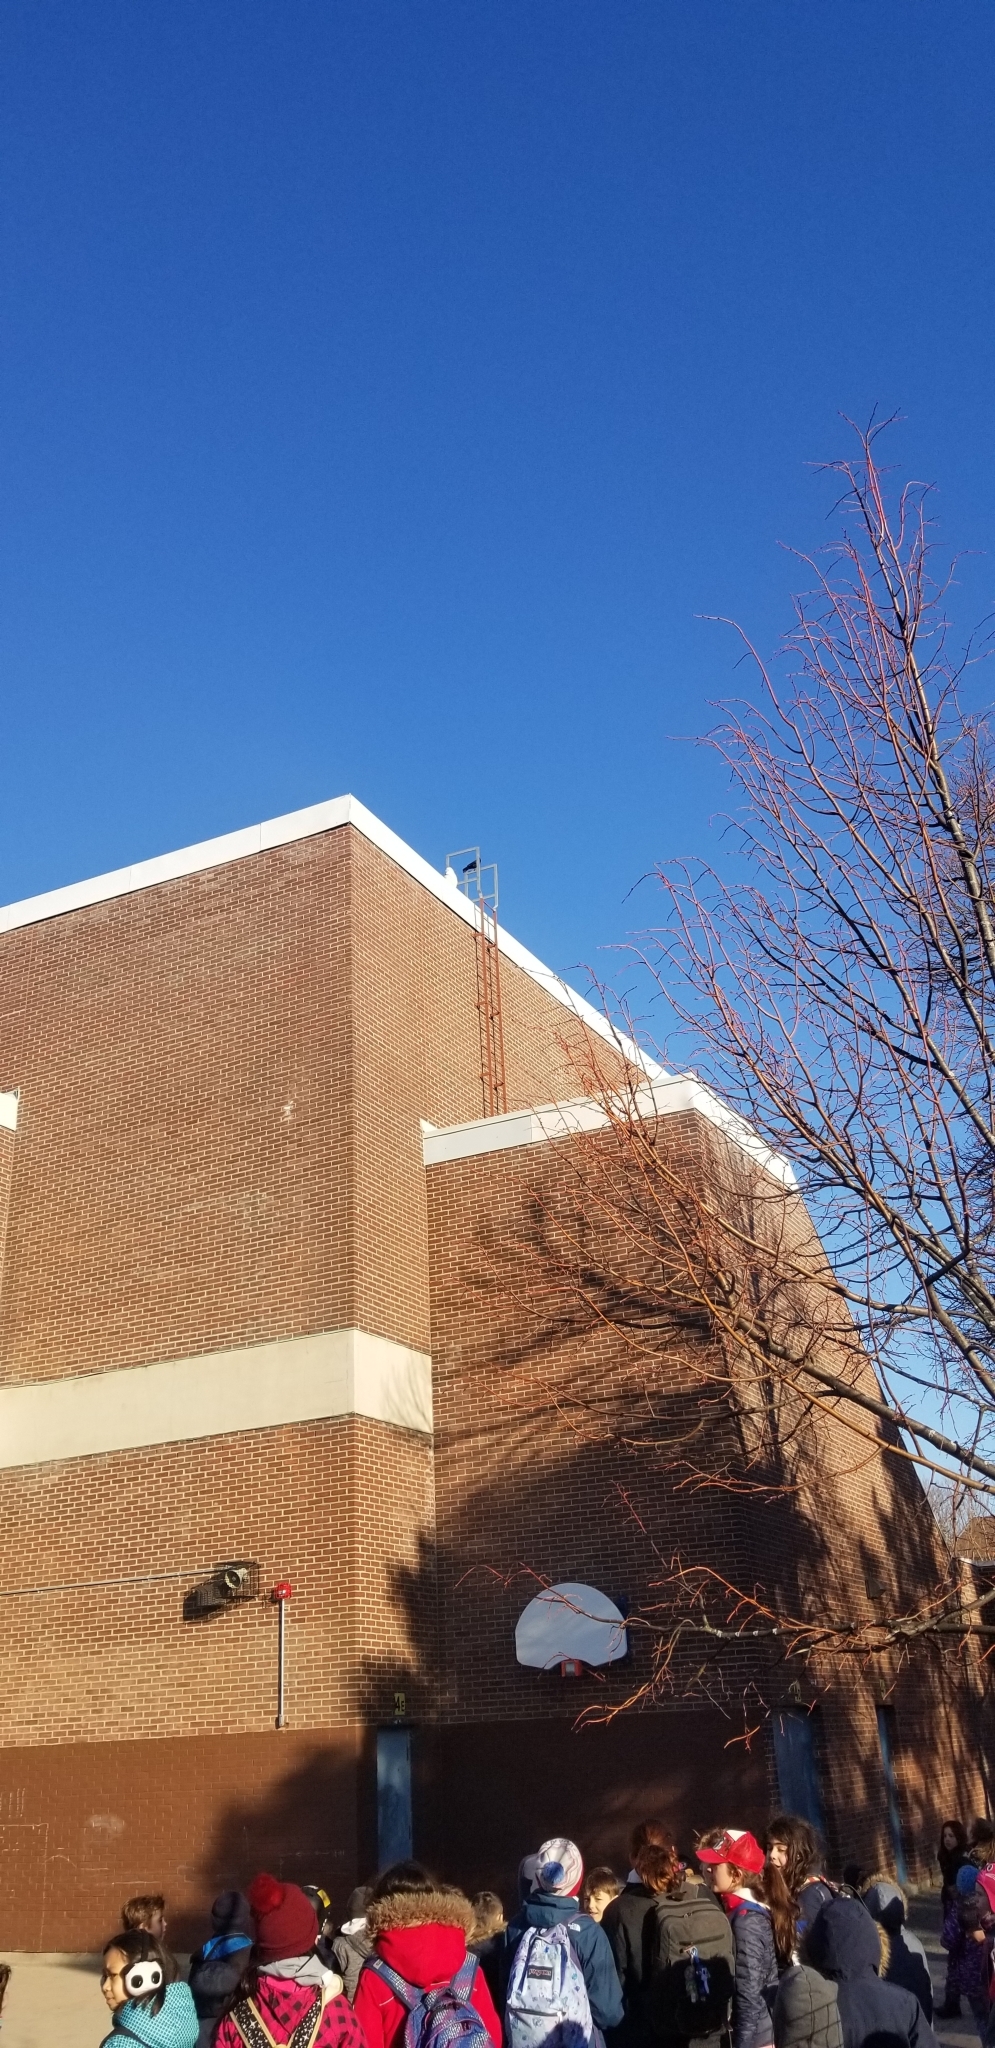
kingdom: Animalia
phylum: Chordata
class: Aves
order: Strigiformes
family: Strigidae
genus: Bubo
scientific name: Bubo scandiacus
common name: Snowy owl
